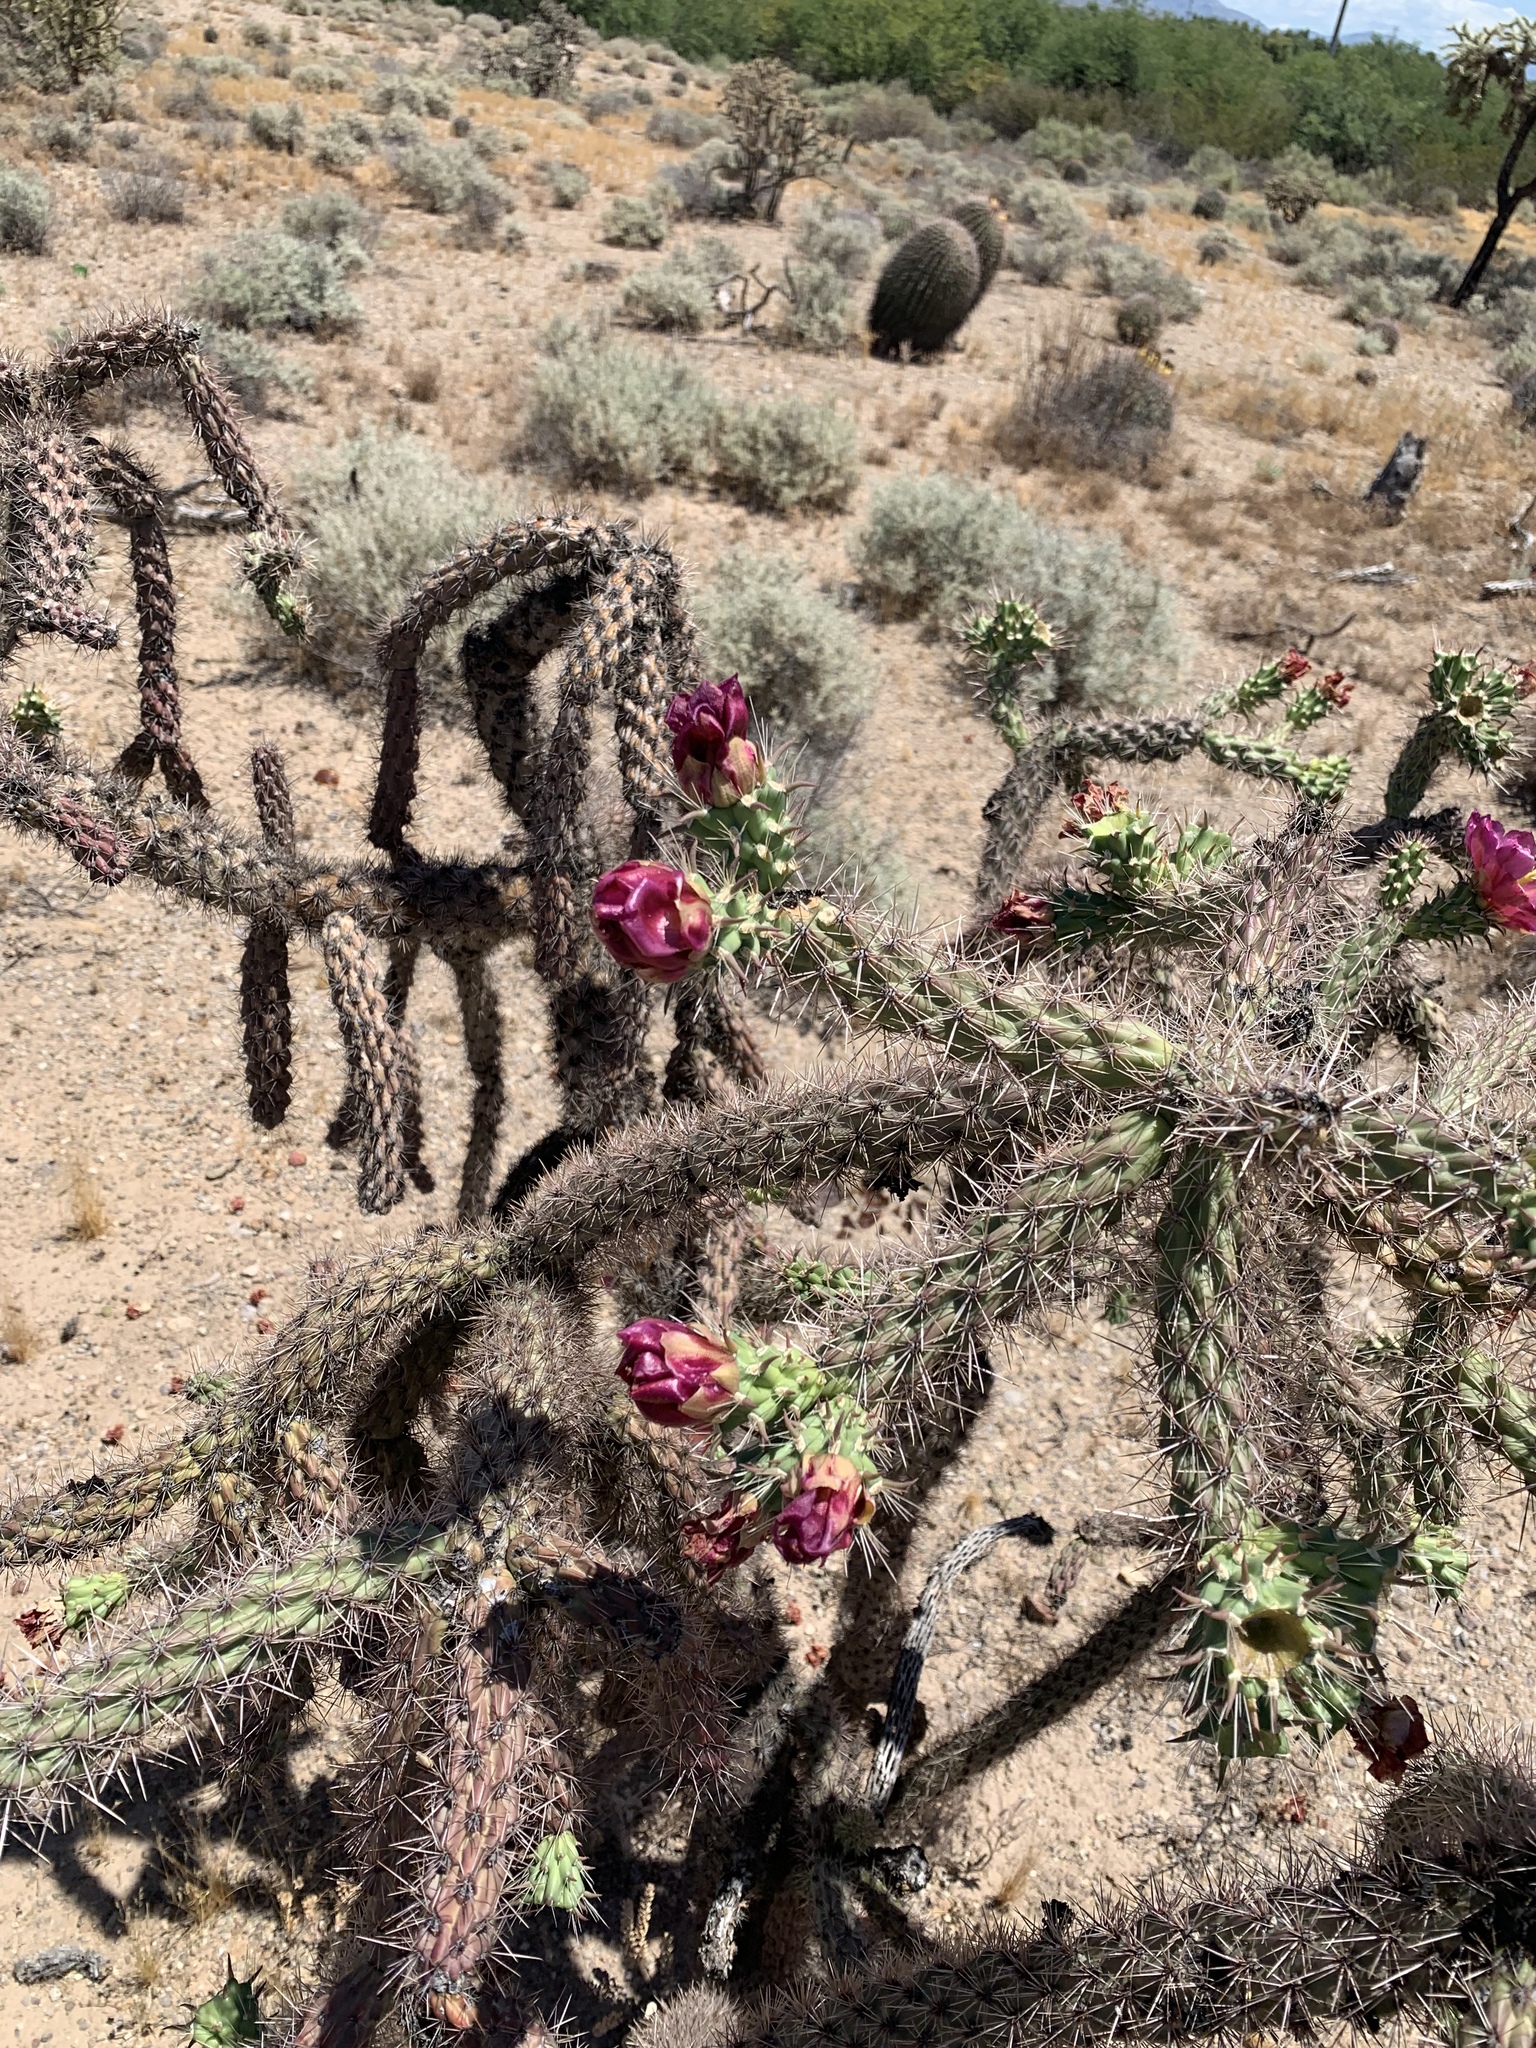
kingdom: Plantae
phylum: Tracheophyta
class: Magnoliopsida
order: Caryophyllales
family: Cactaceae
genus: Cylindropuntia
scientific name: Cylindropuntia imbricata
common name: Candelabrum cactus
